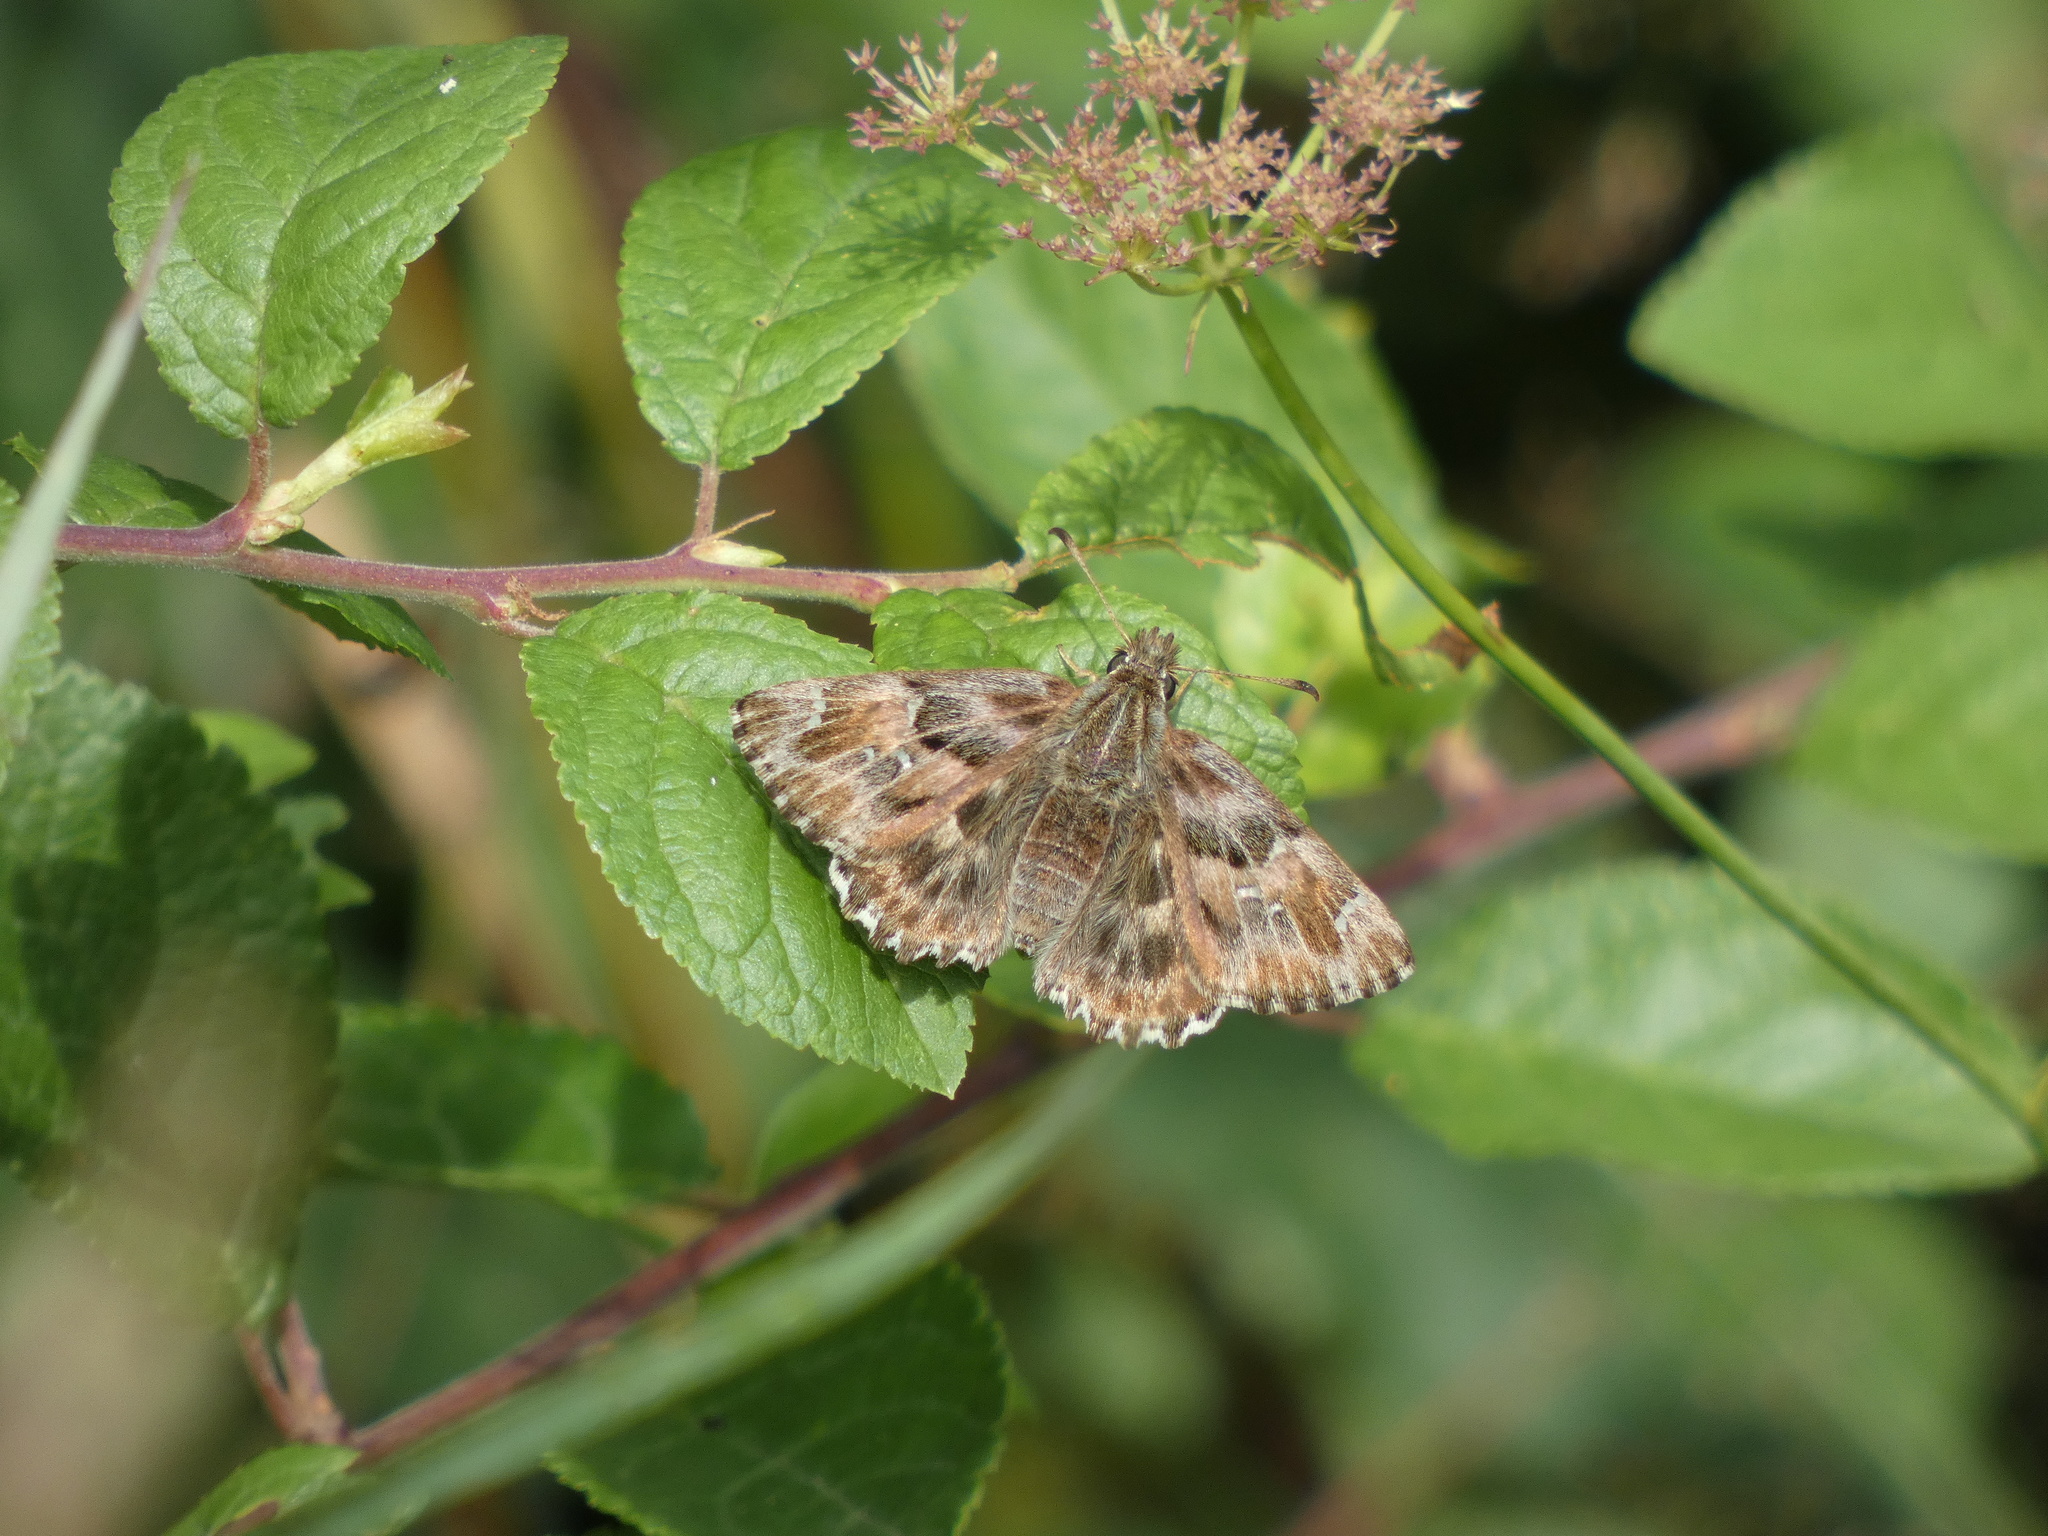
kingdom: Animalia
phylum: Arthropoda
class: Insecta
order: Lepidoptera
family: Hesperiidae
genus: Carcharodus
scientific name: Carcharodus alceae
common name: Mallow skipper
